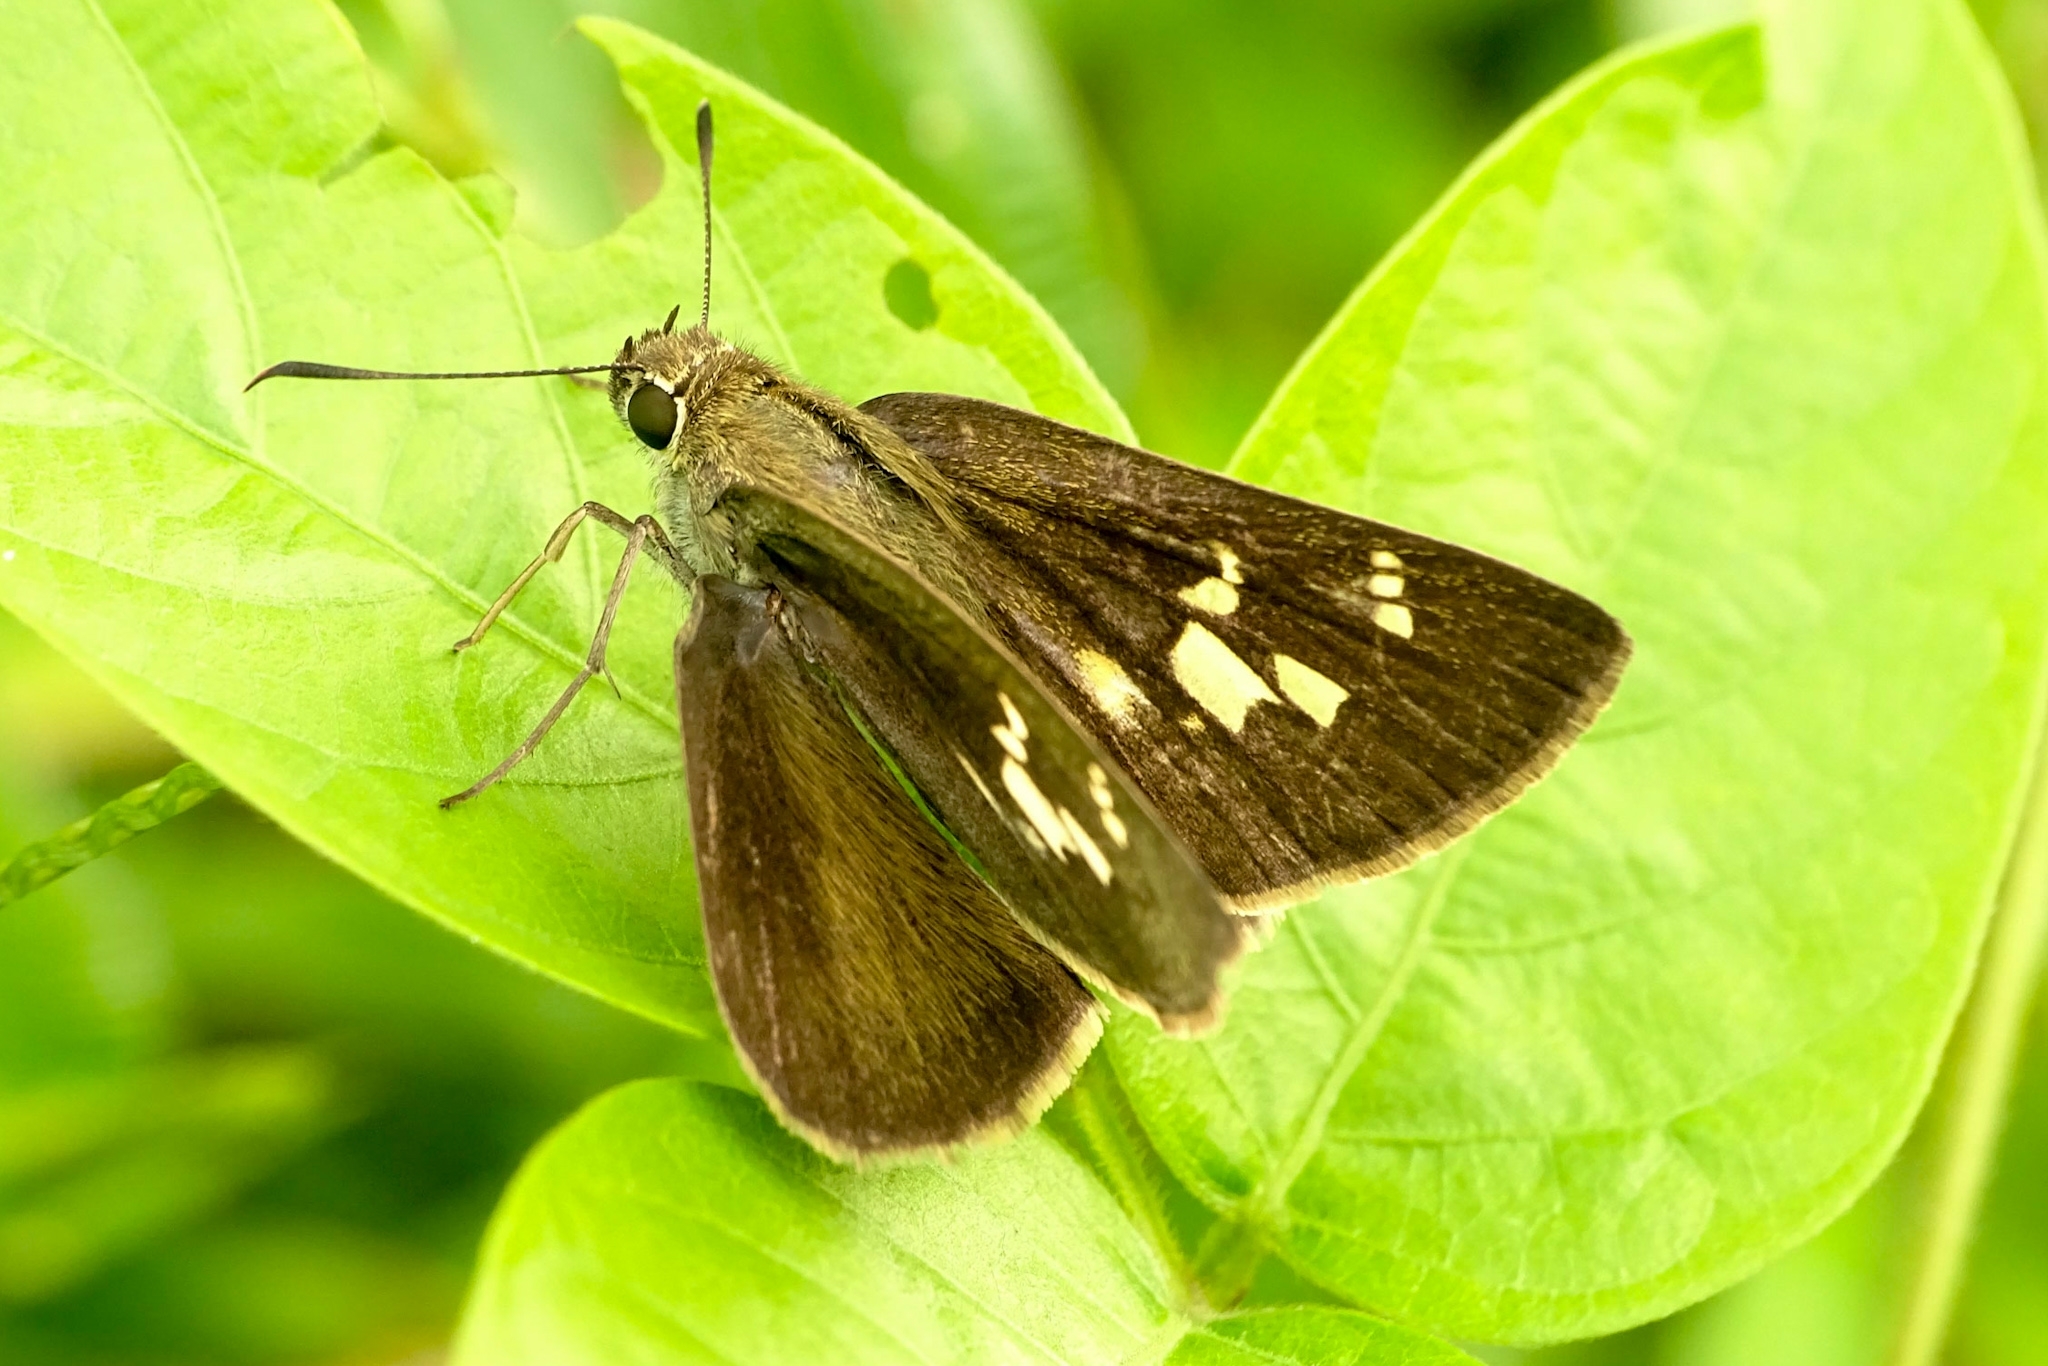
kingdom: Animalia
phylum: Arthropoda
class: Insecta
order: Lepidoptera
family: Hesperiidae
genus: Suastus
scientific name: Suastus gremius
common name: Indian palm bob
